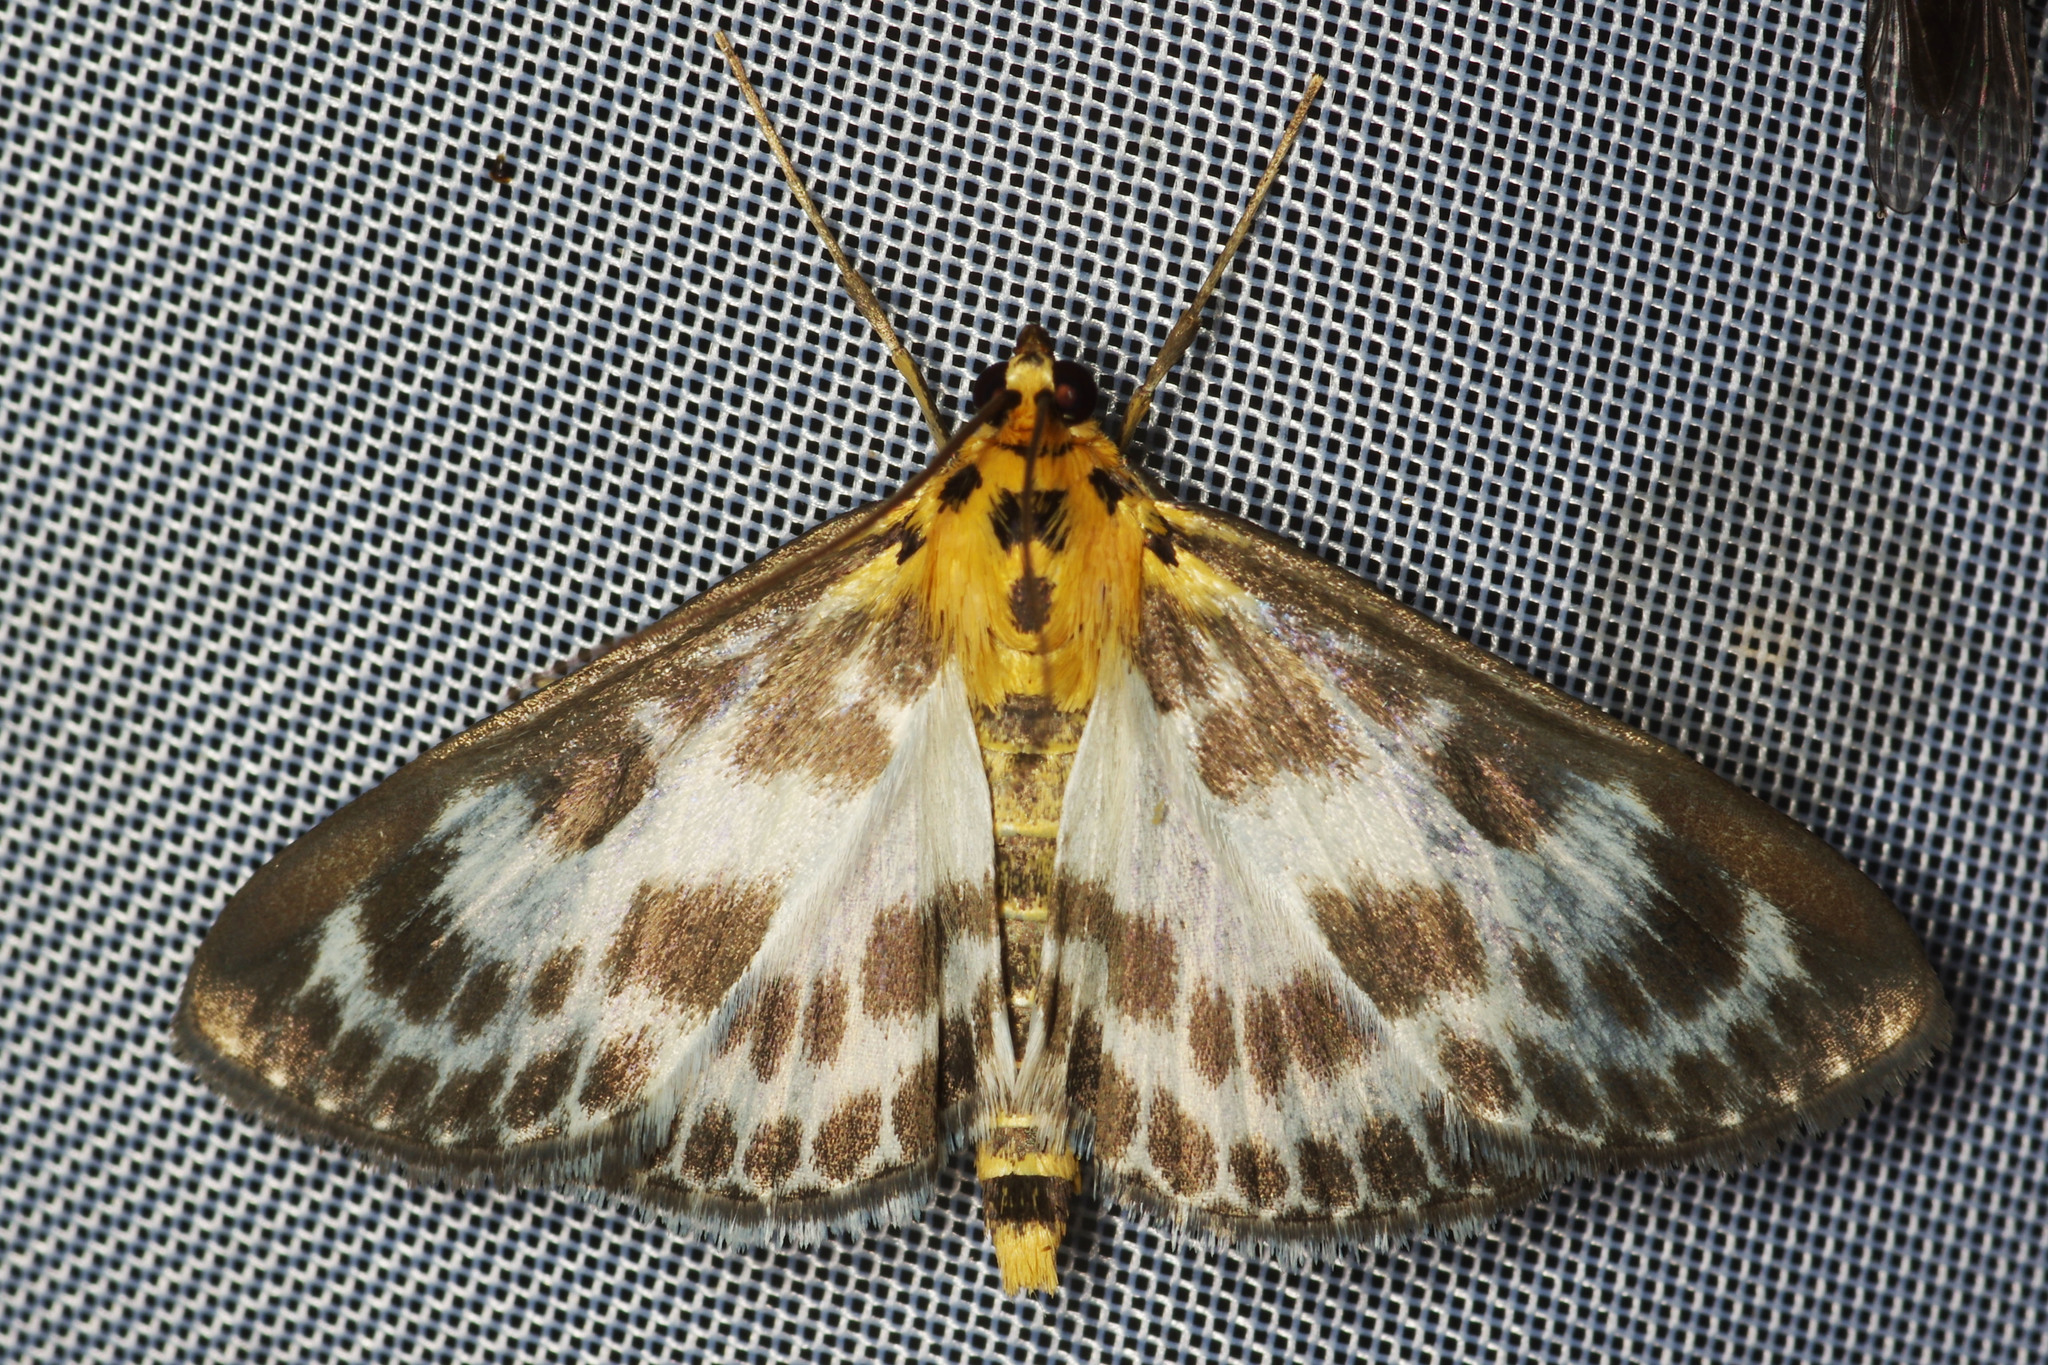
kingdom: Animalia
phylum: Arthropoda
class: Insecta
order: Lepidoptera
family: Crambidae
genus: Anania
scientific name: Anania hortulata
